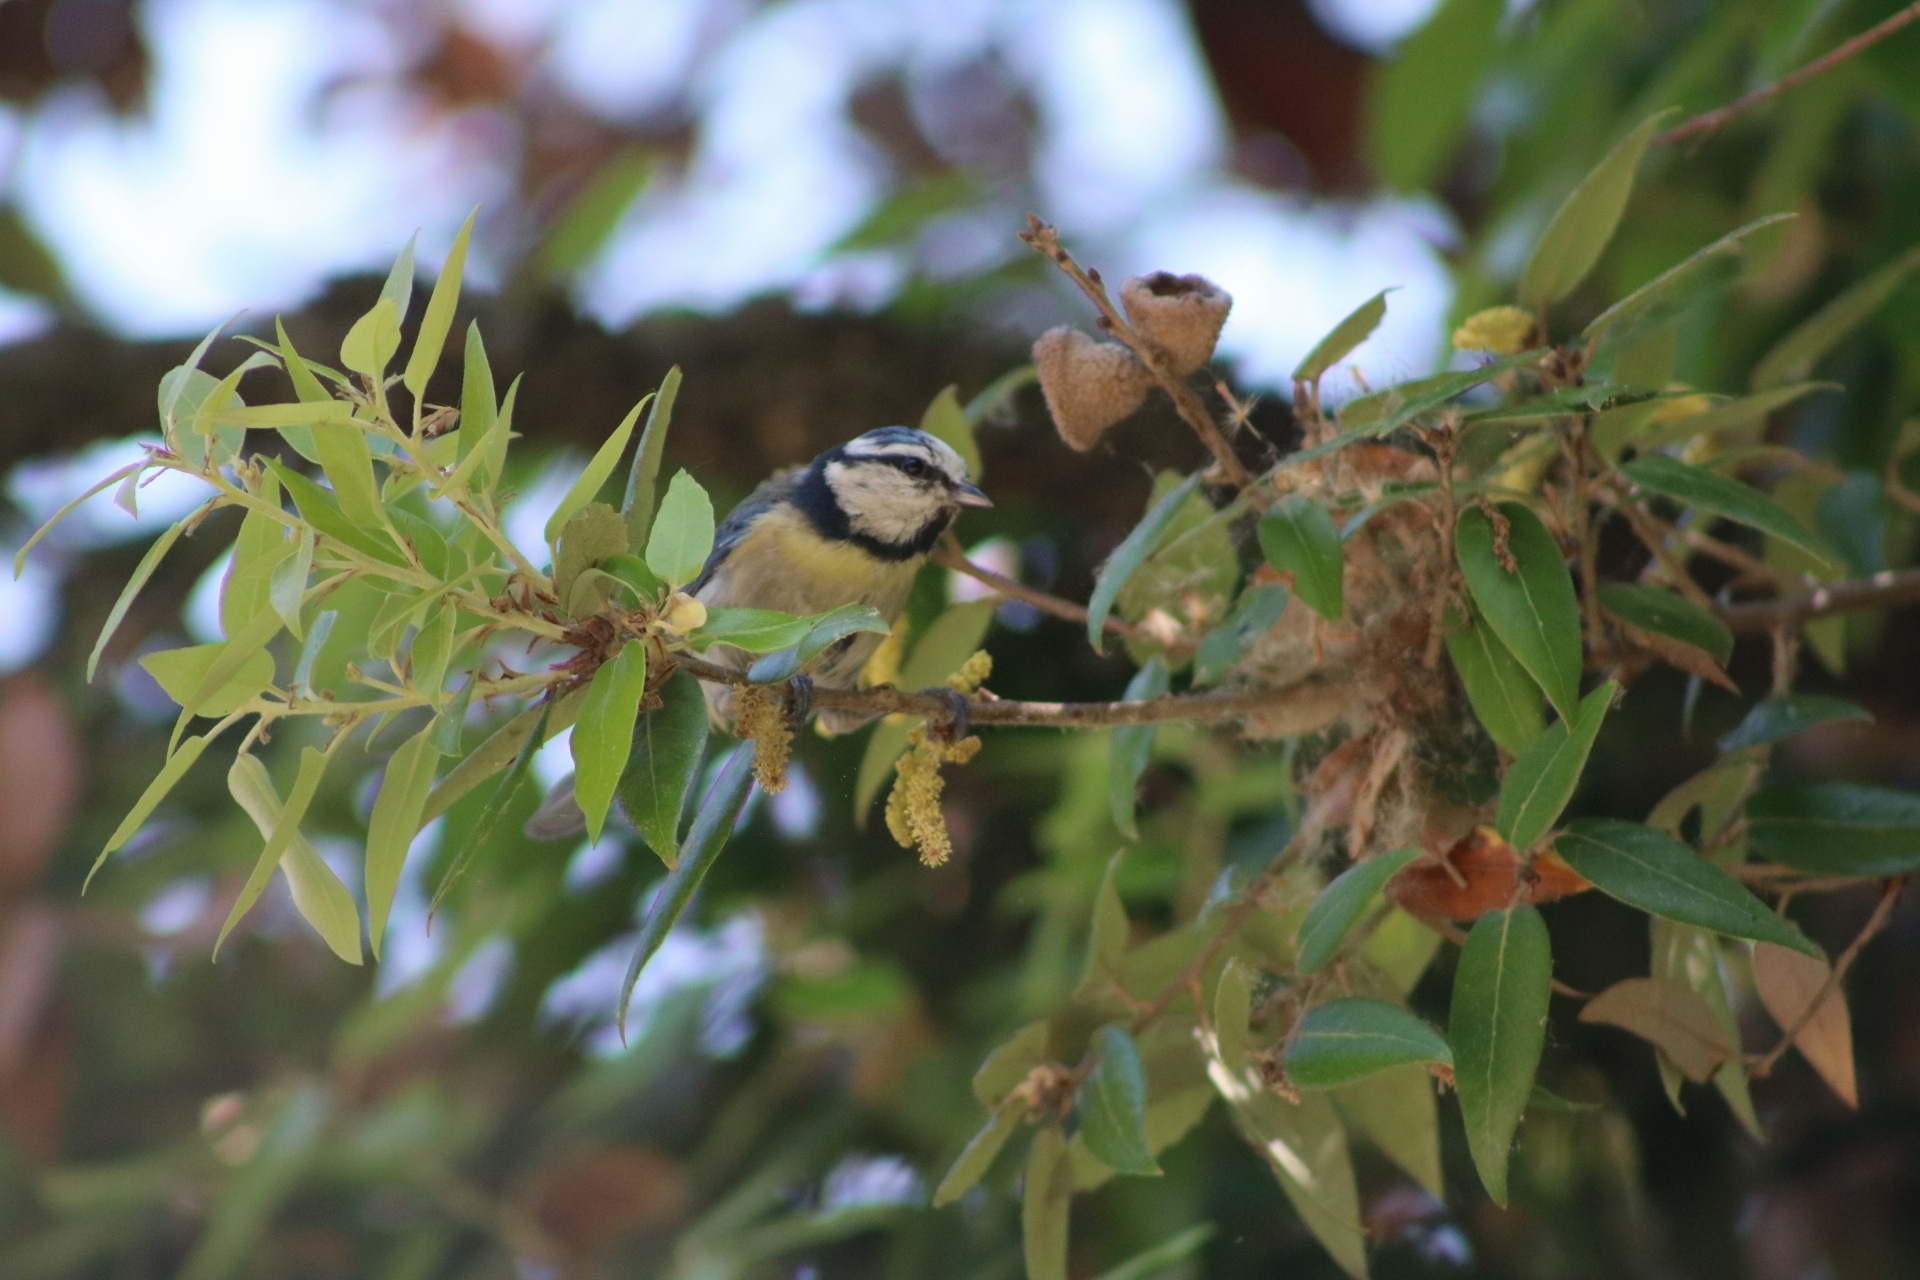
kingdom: Animalia
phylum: Chordata
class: Aves
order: Passeriformes
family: Paridae
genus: Cyanistes
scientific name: Cyanistes caeruleus
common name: Eurasian blue tit
